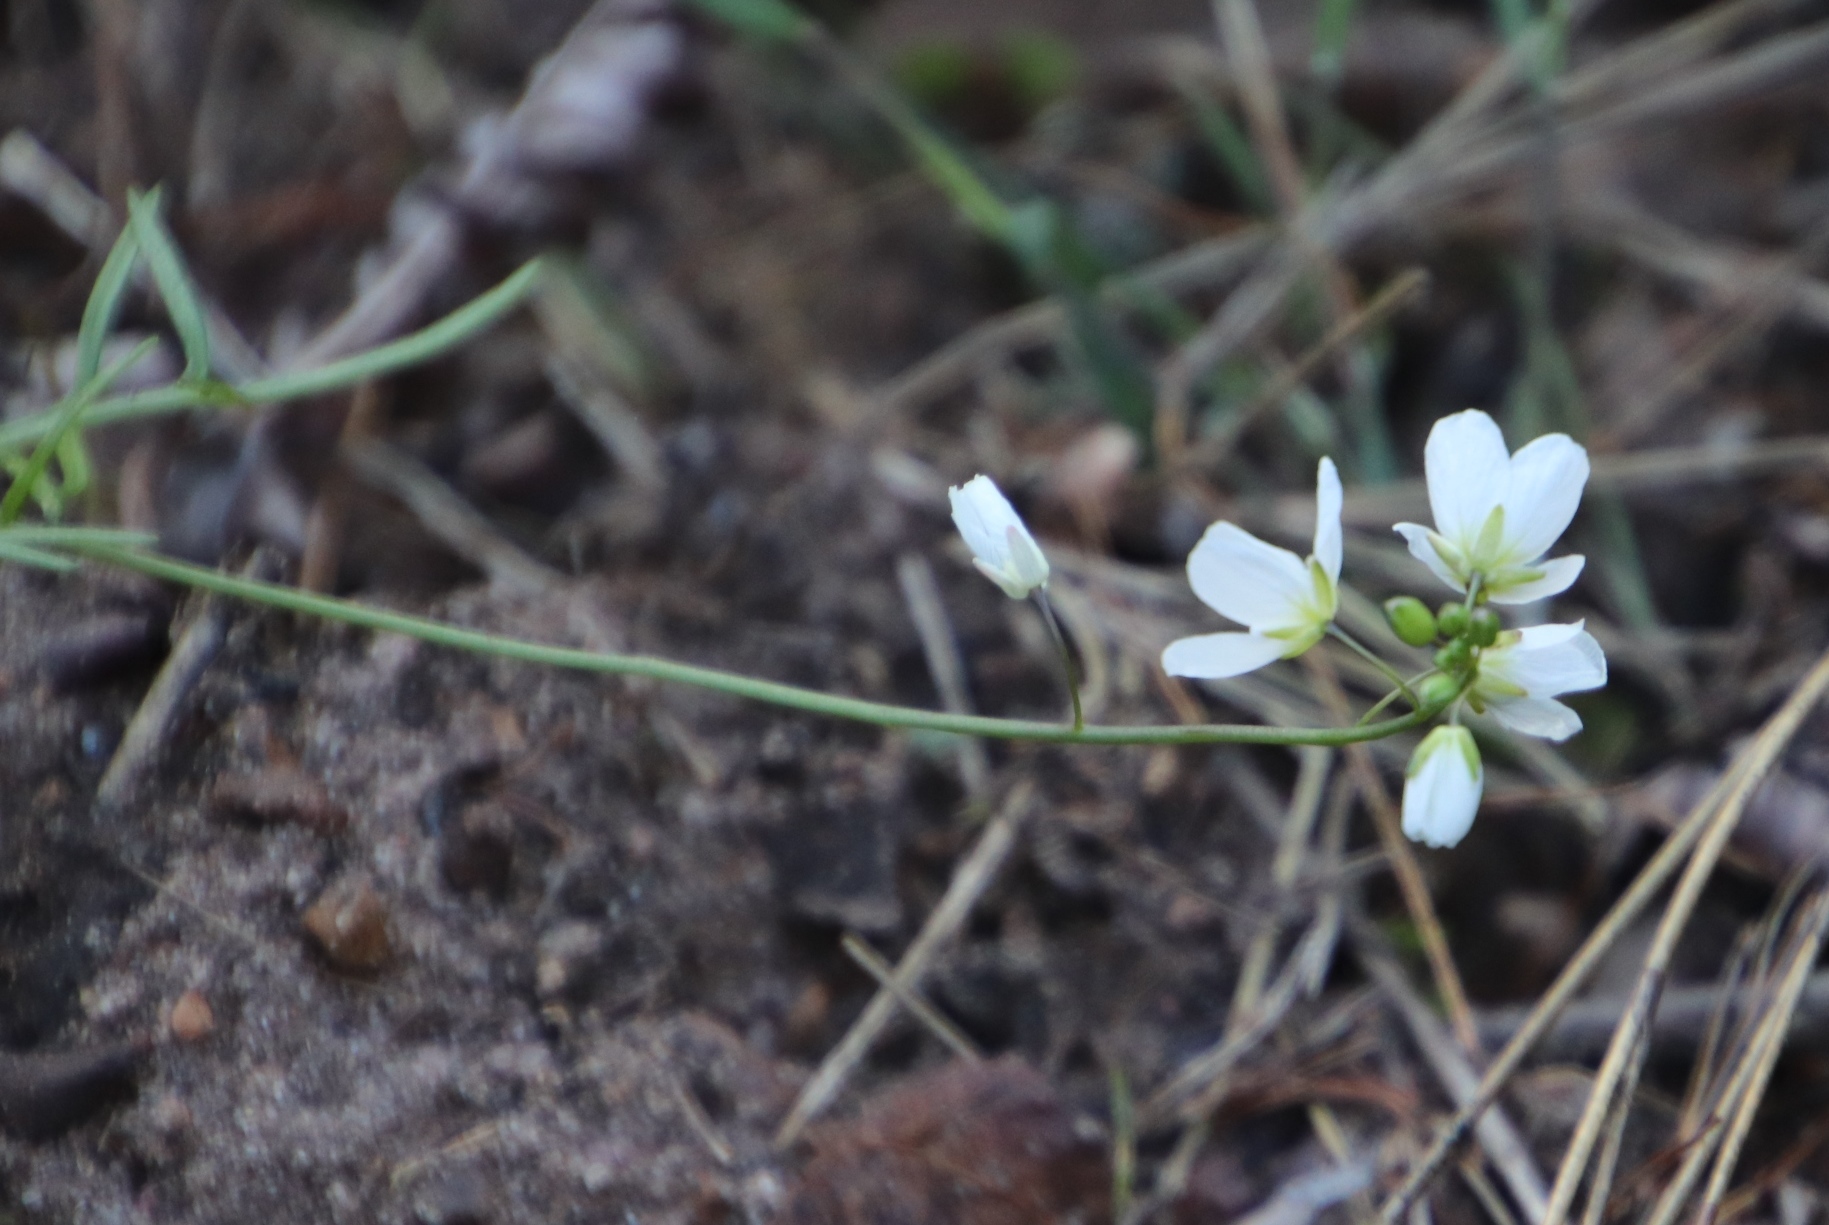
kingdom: Plantae
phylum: Tracheophyta
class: Magnoliopsida
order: Brassicales
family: Brassicaceae
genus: Heliophila
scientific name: Heliophila meyeri
